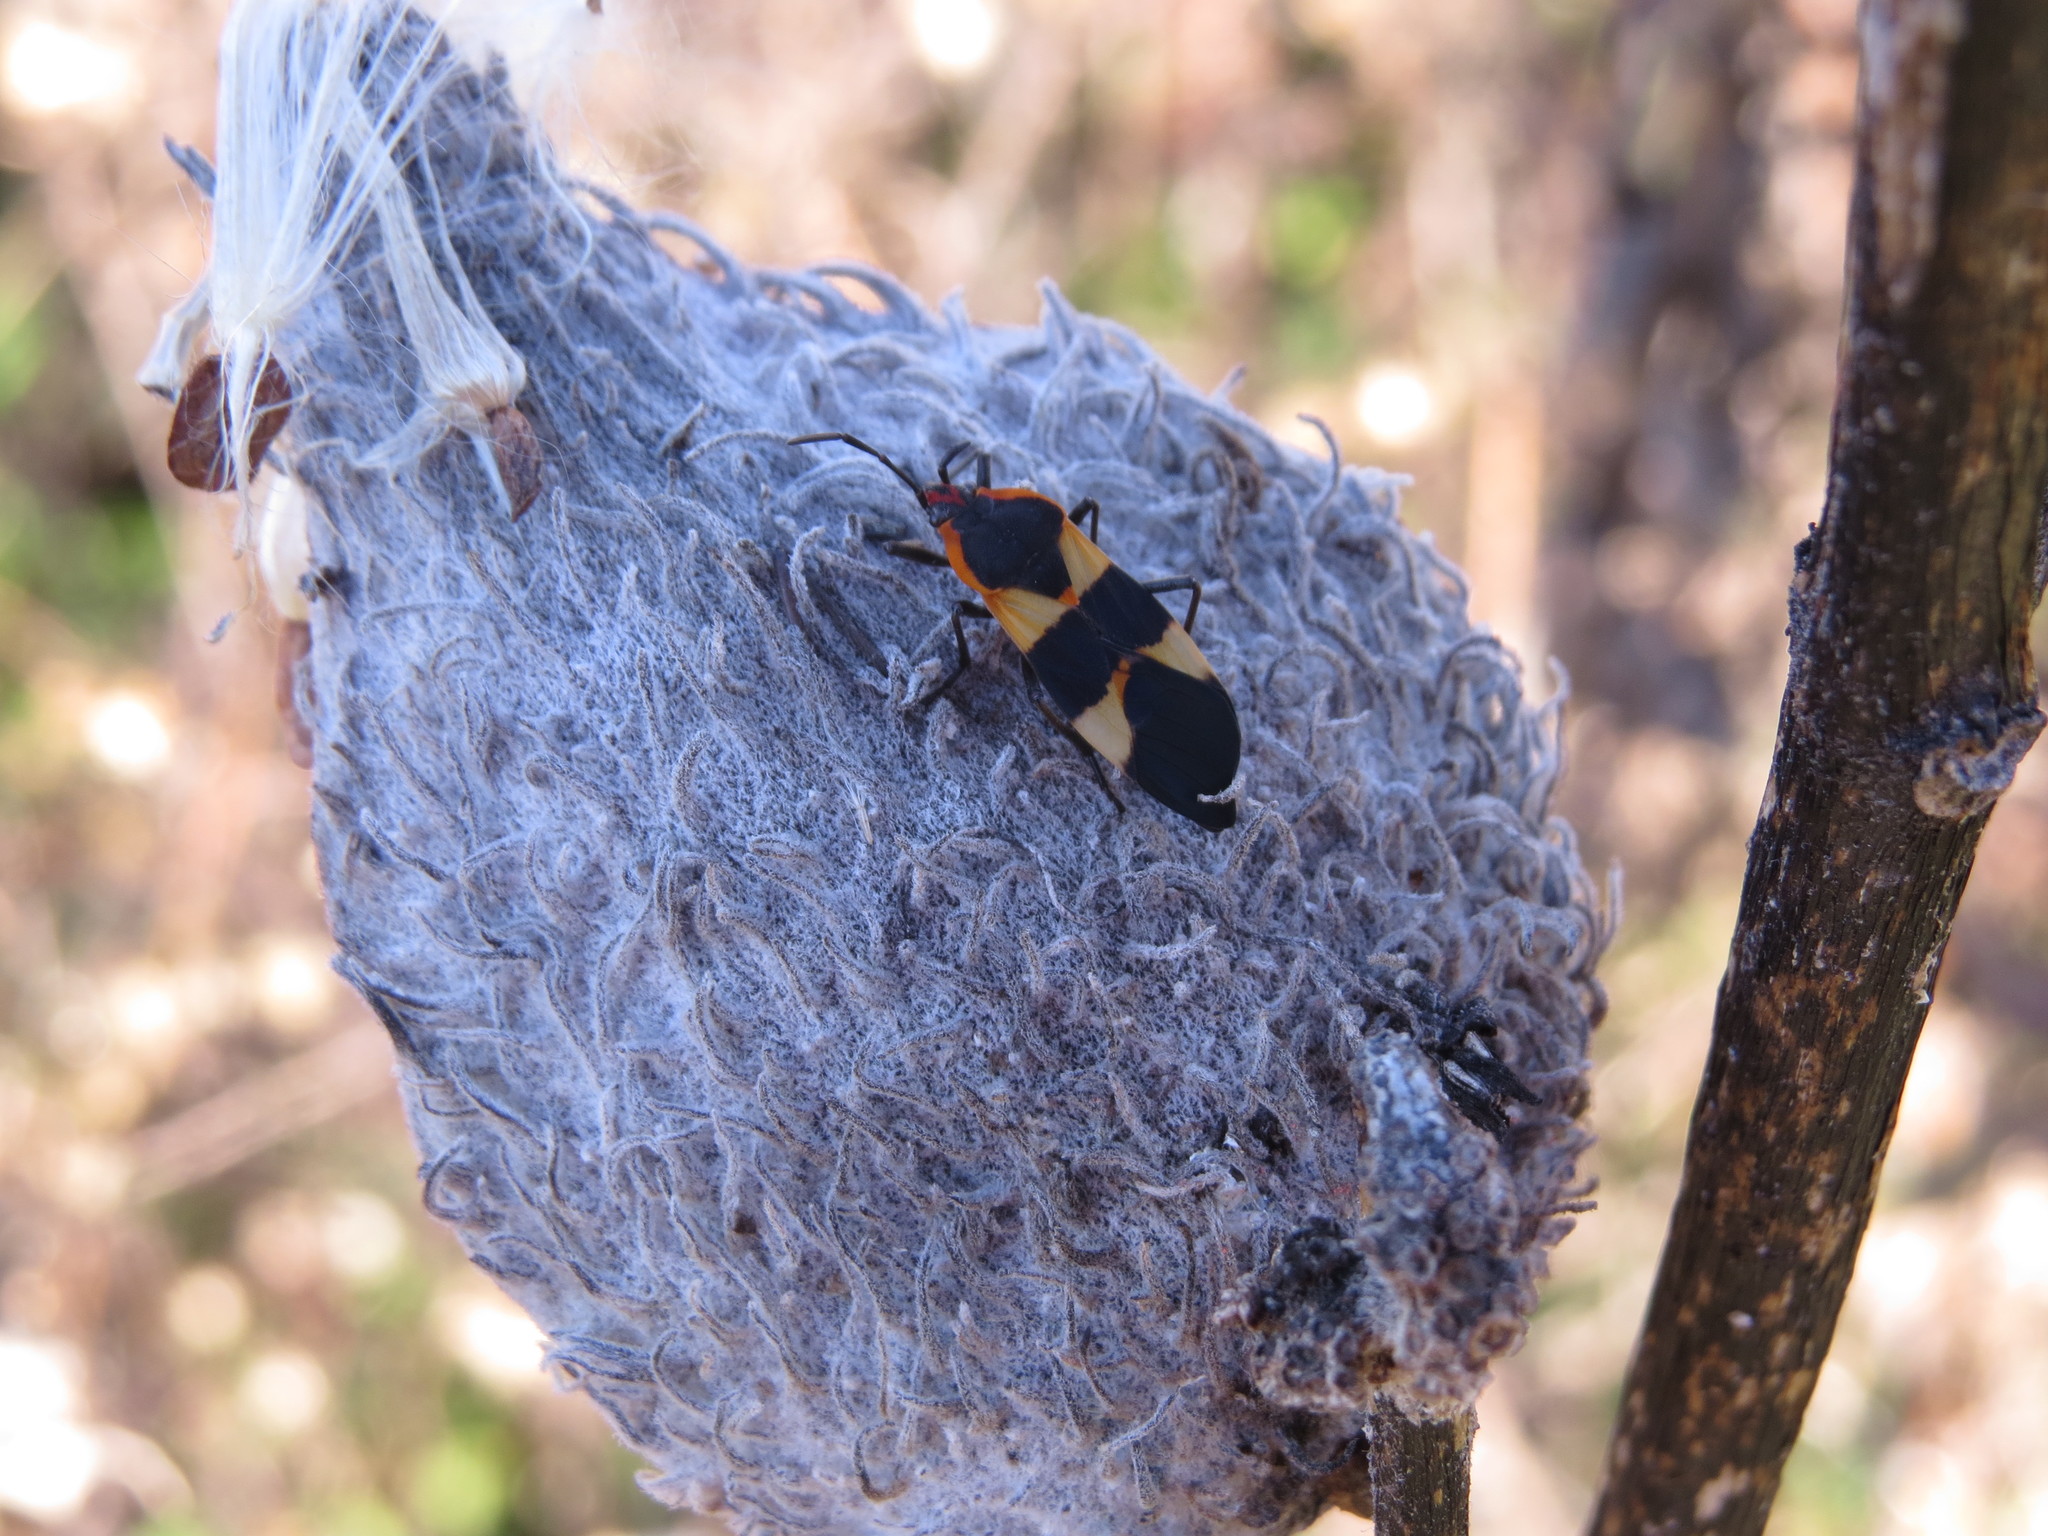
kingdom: Animalia
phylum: Arthropoda
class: Insecta
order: Hemiptera
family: Lygaeidae
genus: Oncopeltus
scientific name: Oncopeltus fasciatus
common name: Large milkweed bug
